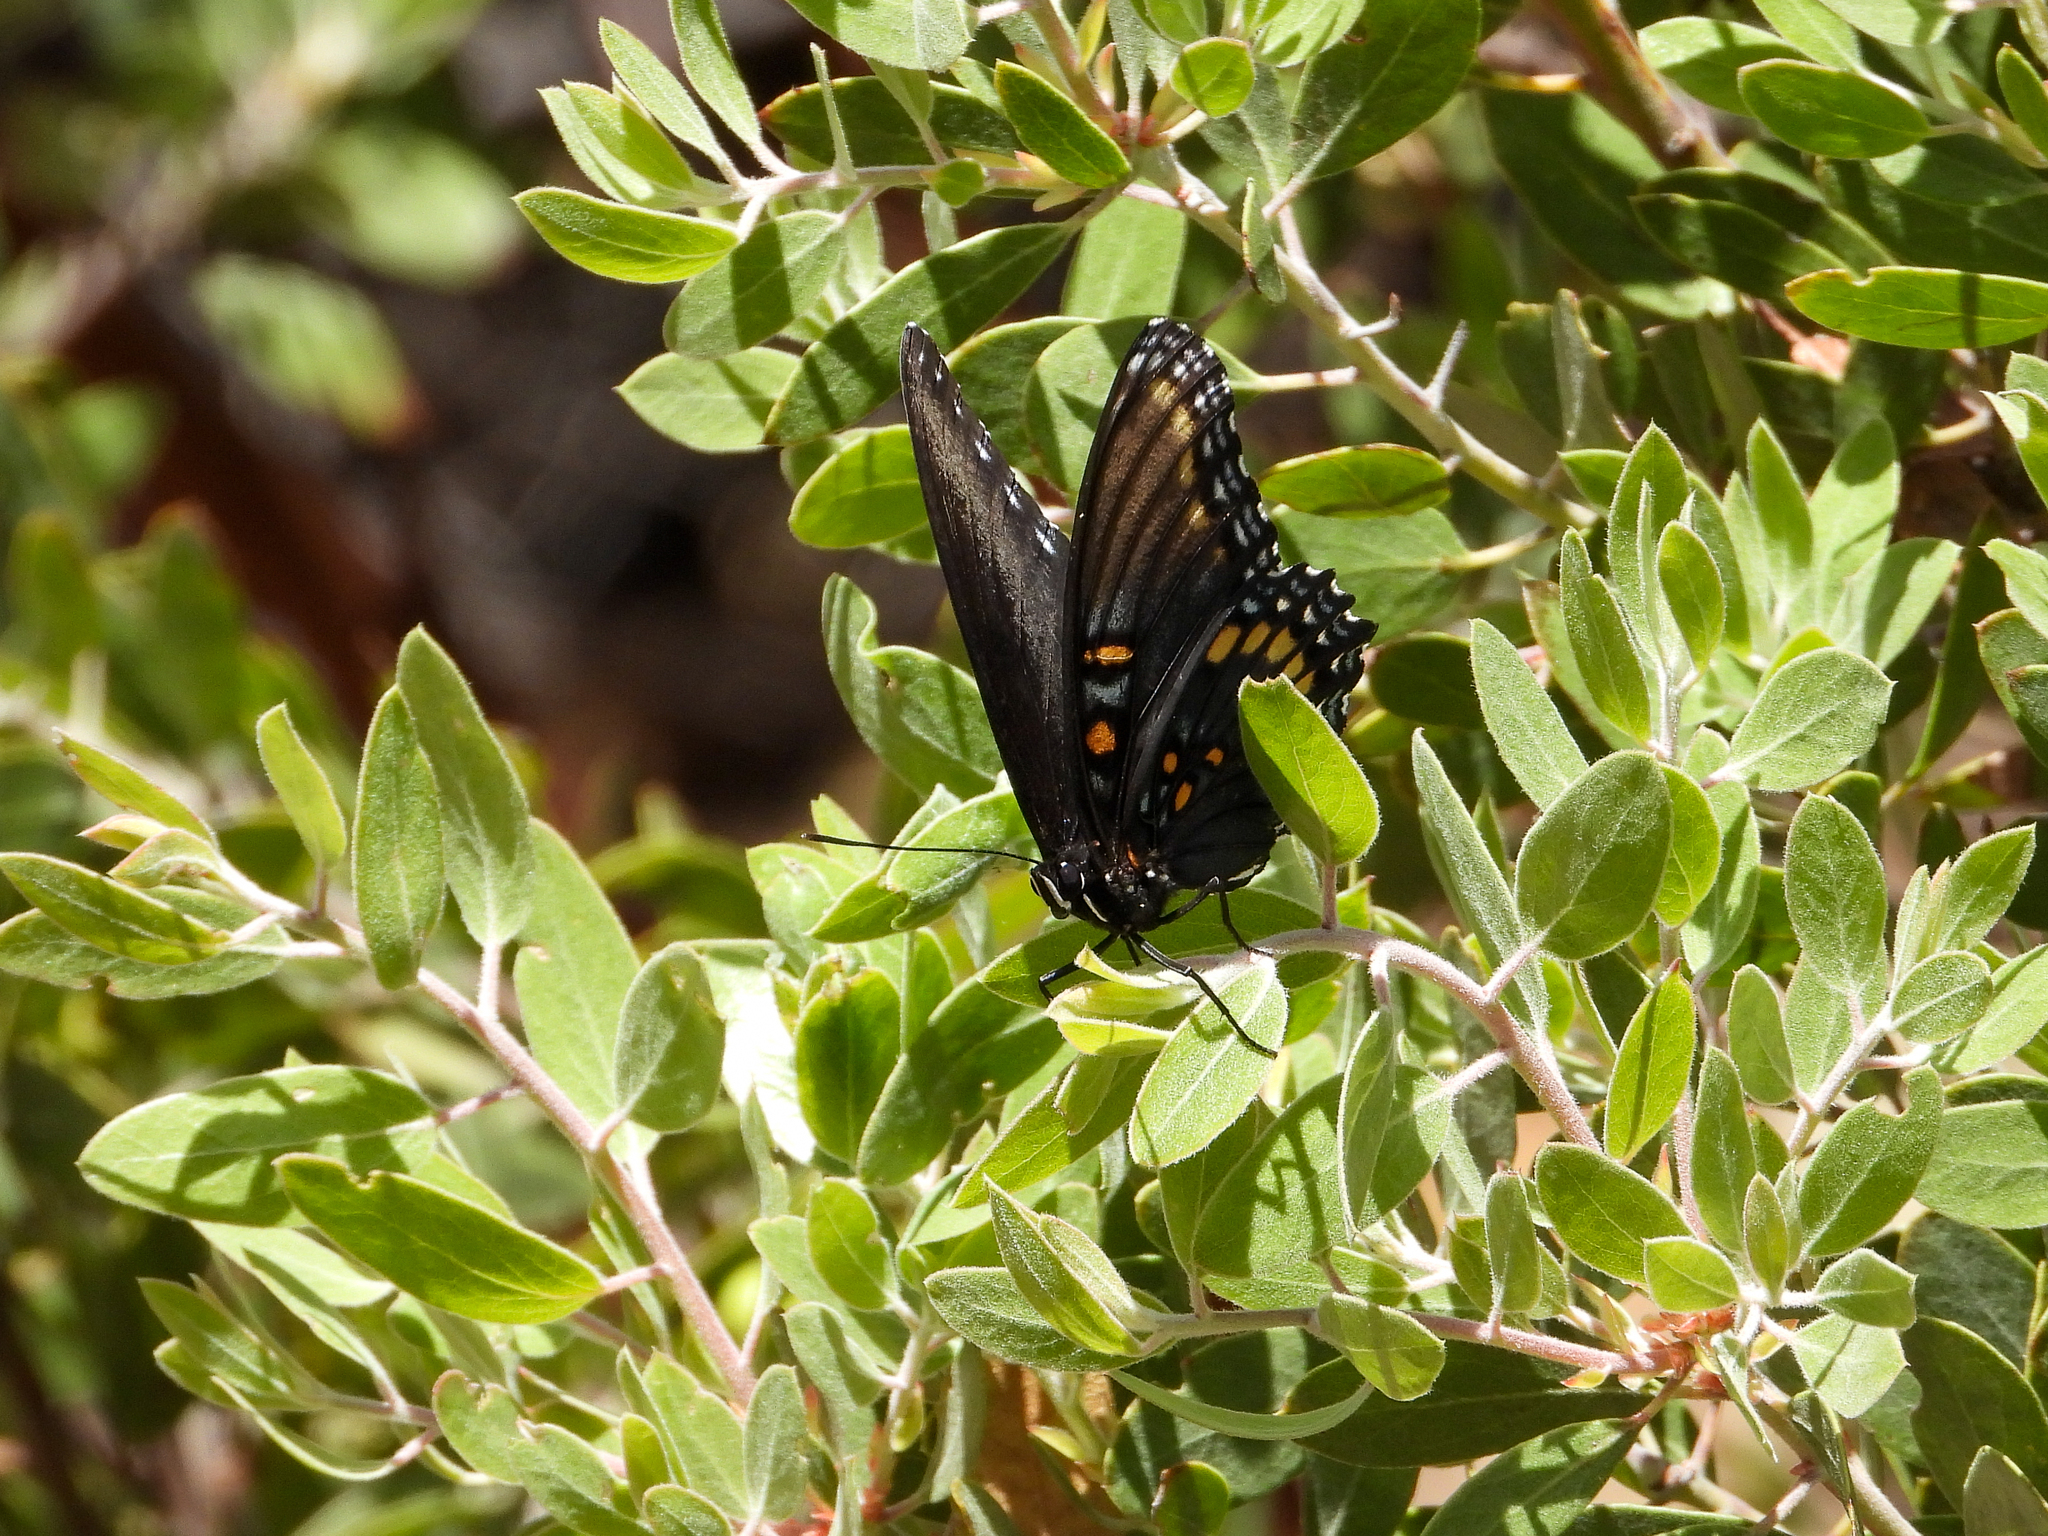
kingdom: Animalia
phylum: Arthropoda
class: Insecta
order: Lepidoptera
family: Nymphalidae
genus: Limenitis
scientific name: Limenitis arthemis
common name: Red-spotted admiral
